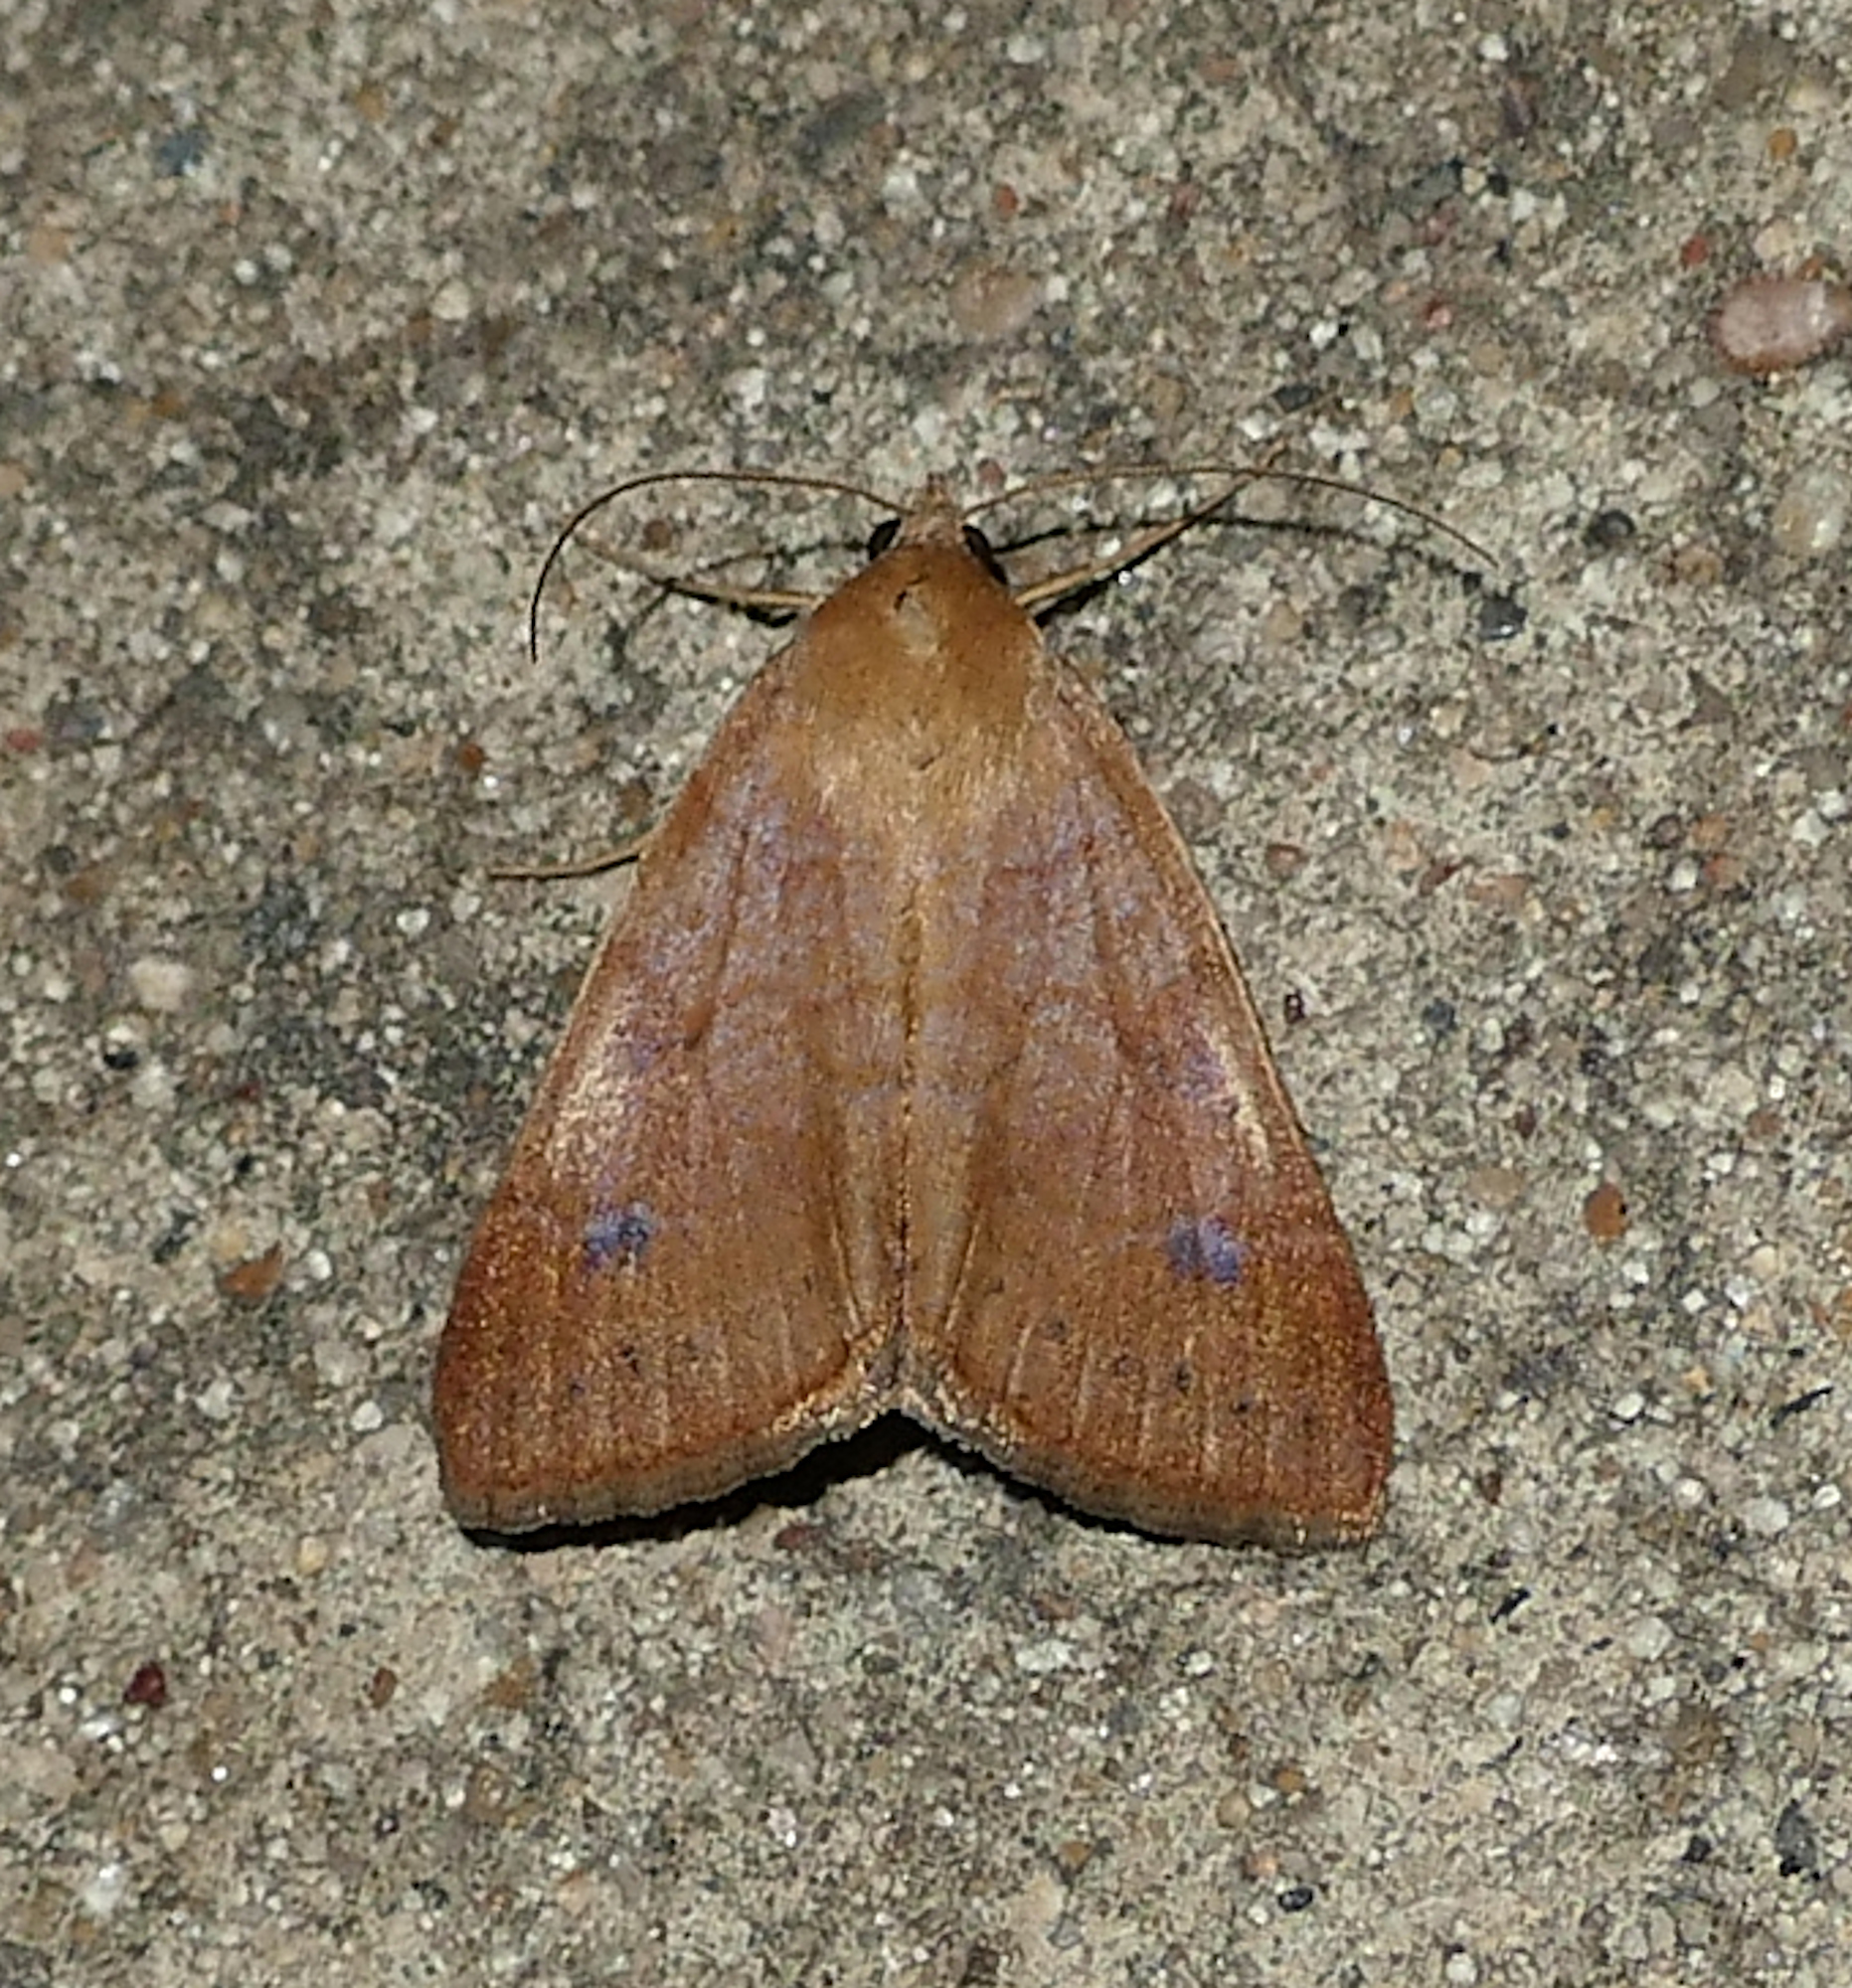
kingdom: Animalia
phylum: Arthropoda
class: Insecta
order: Lepidoptera
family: Erebidae
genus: Caenurgia
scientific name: Caenurgia chloropha
